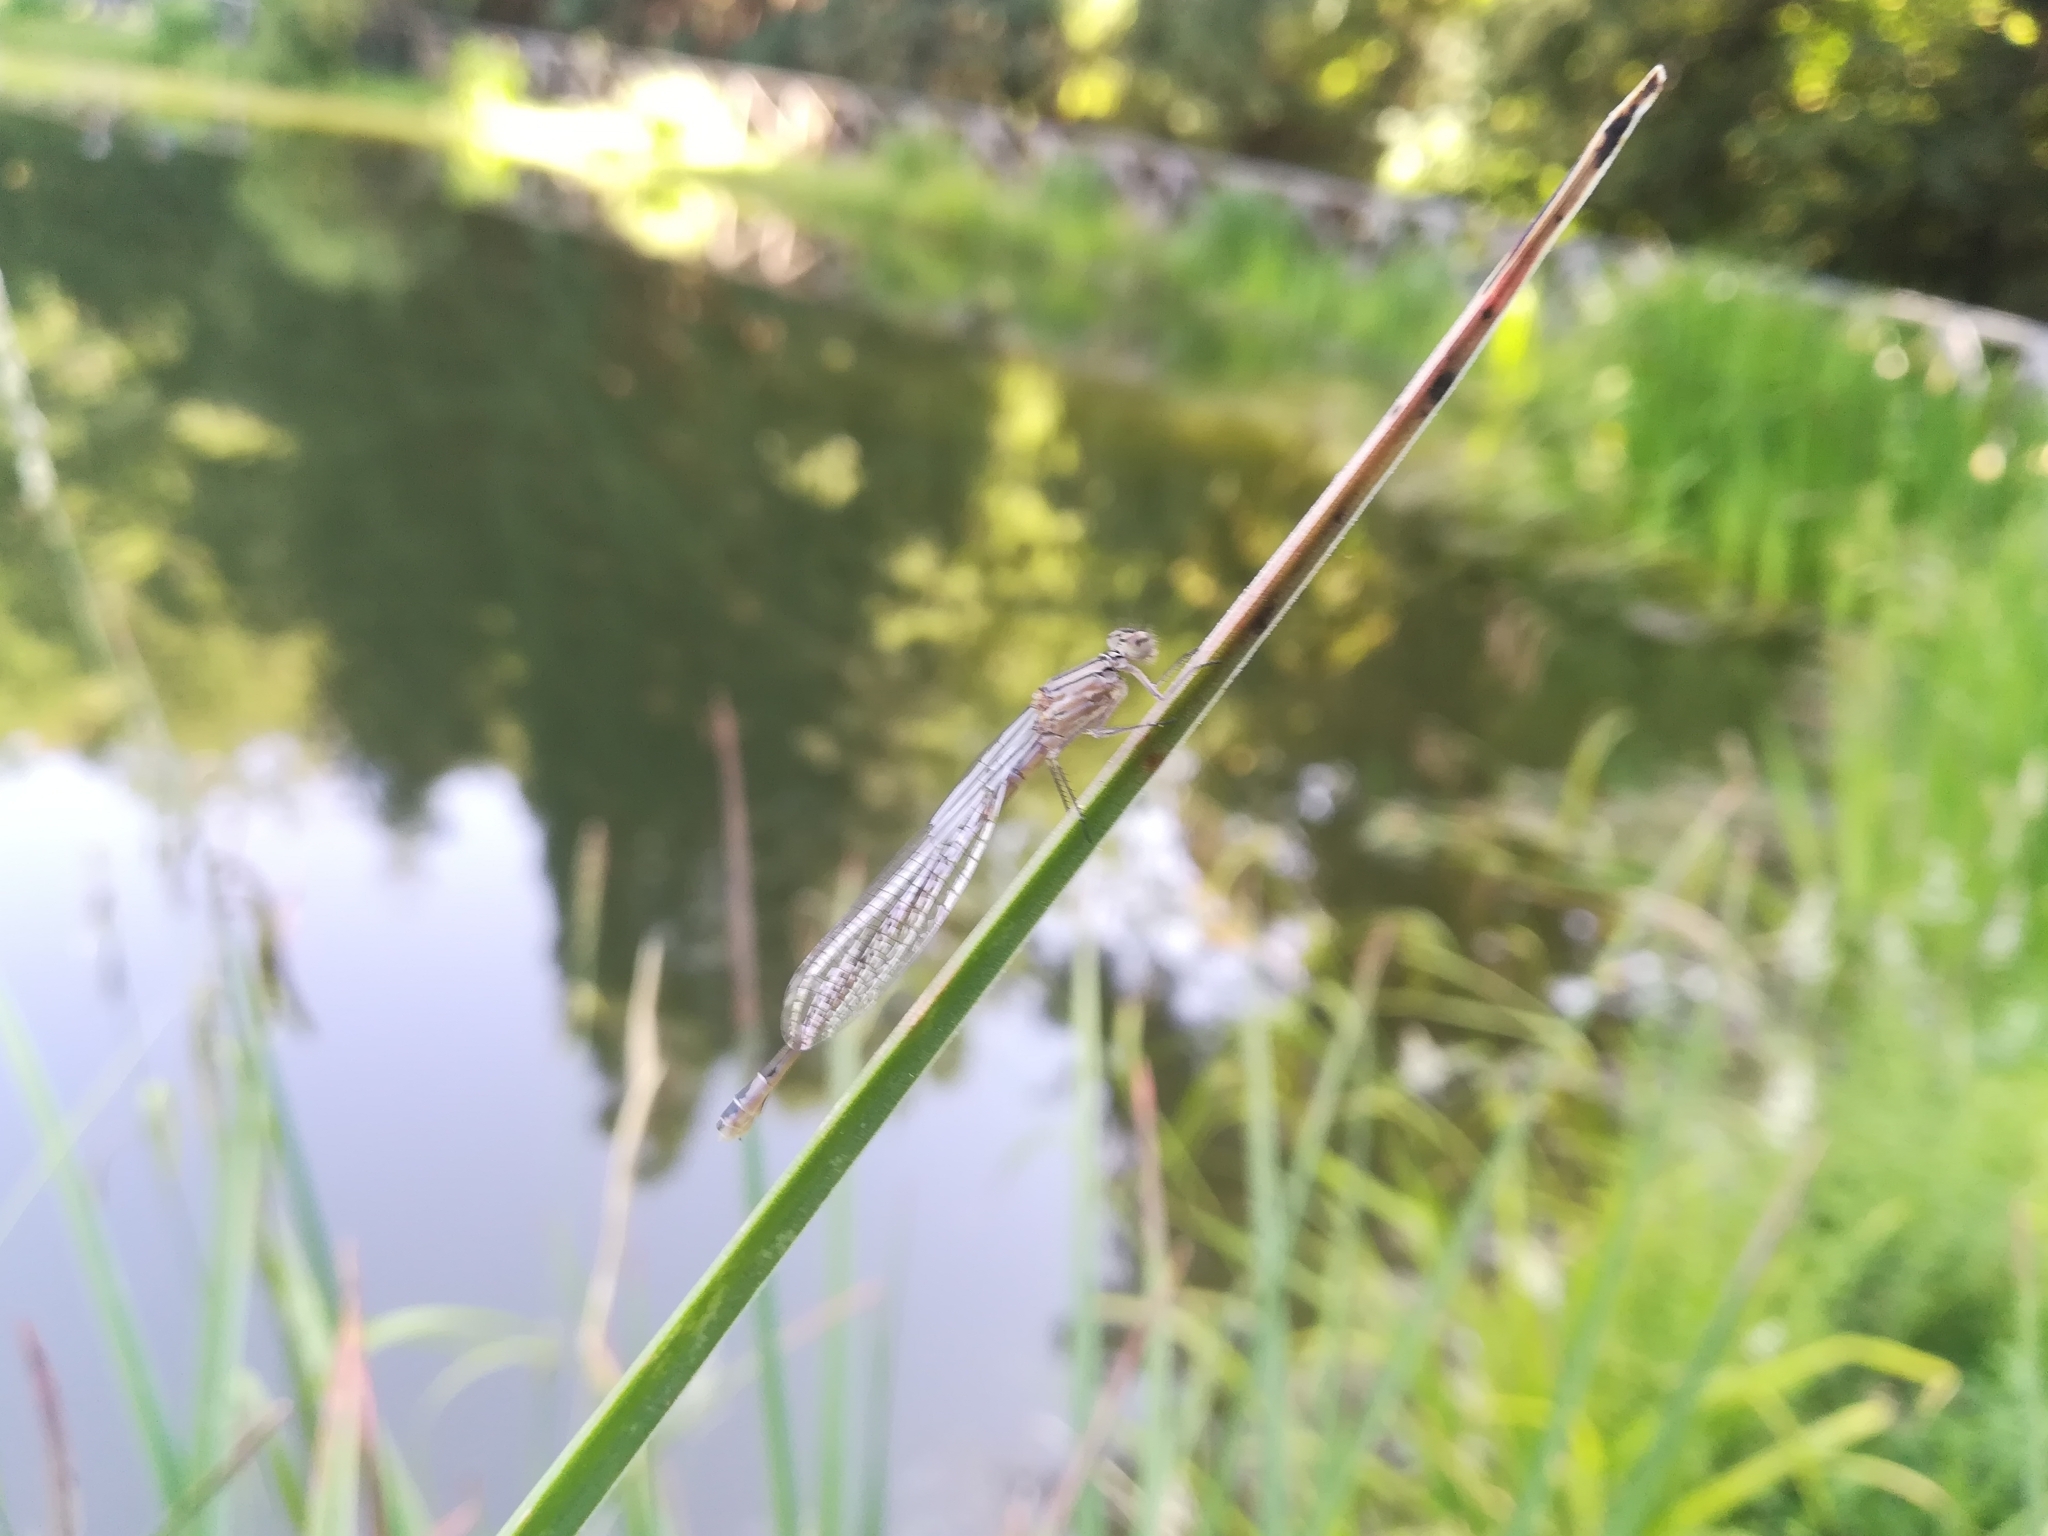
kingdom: Animalia
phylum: Arthropoda
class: Insecta
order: Odonata
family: Coenagrionidae
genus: Enallagma
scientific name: Enallagma cyathigerum
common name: Common blue damselfly
